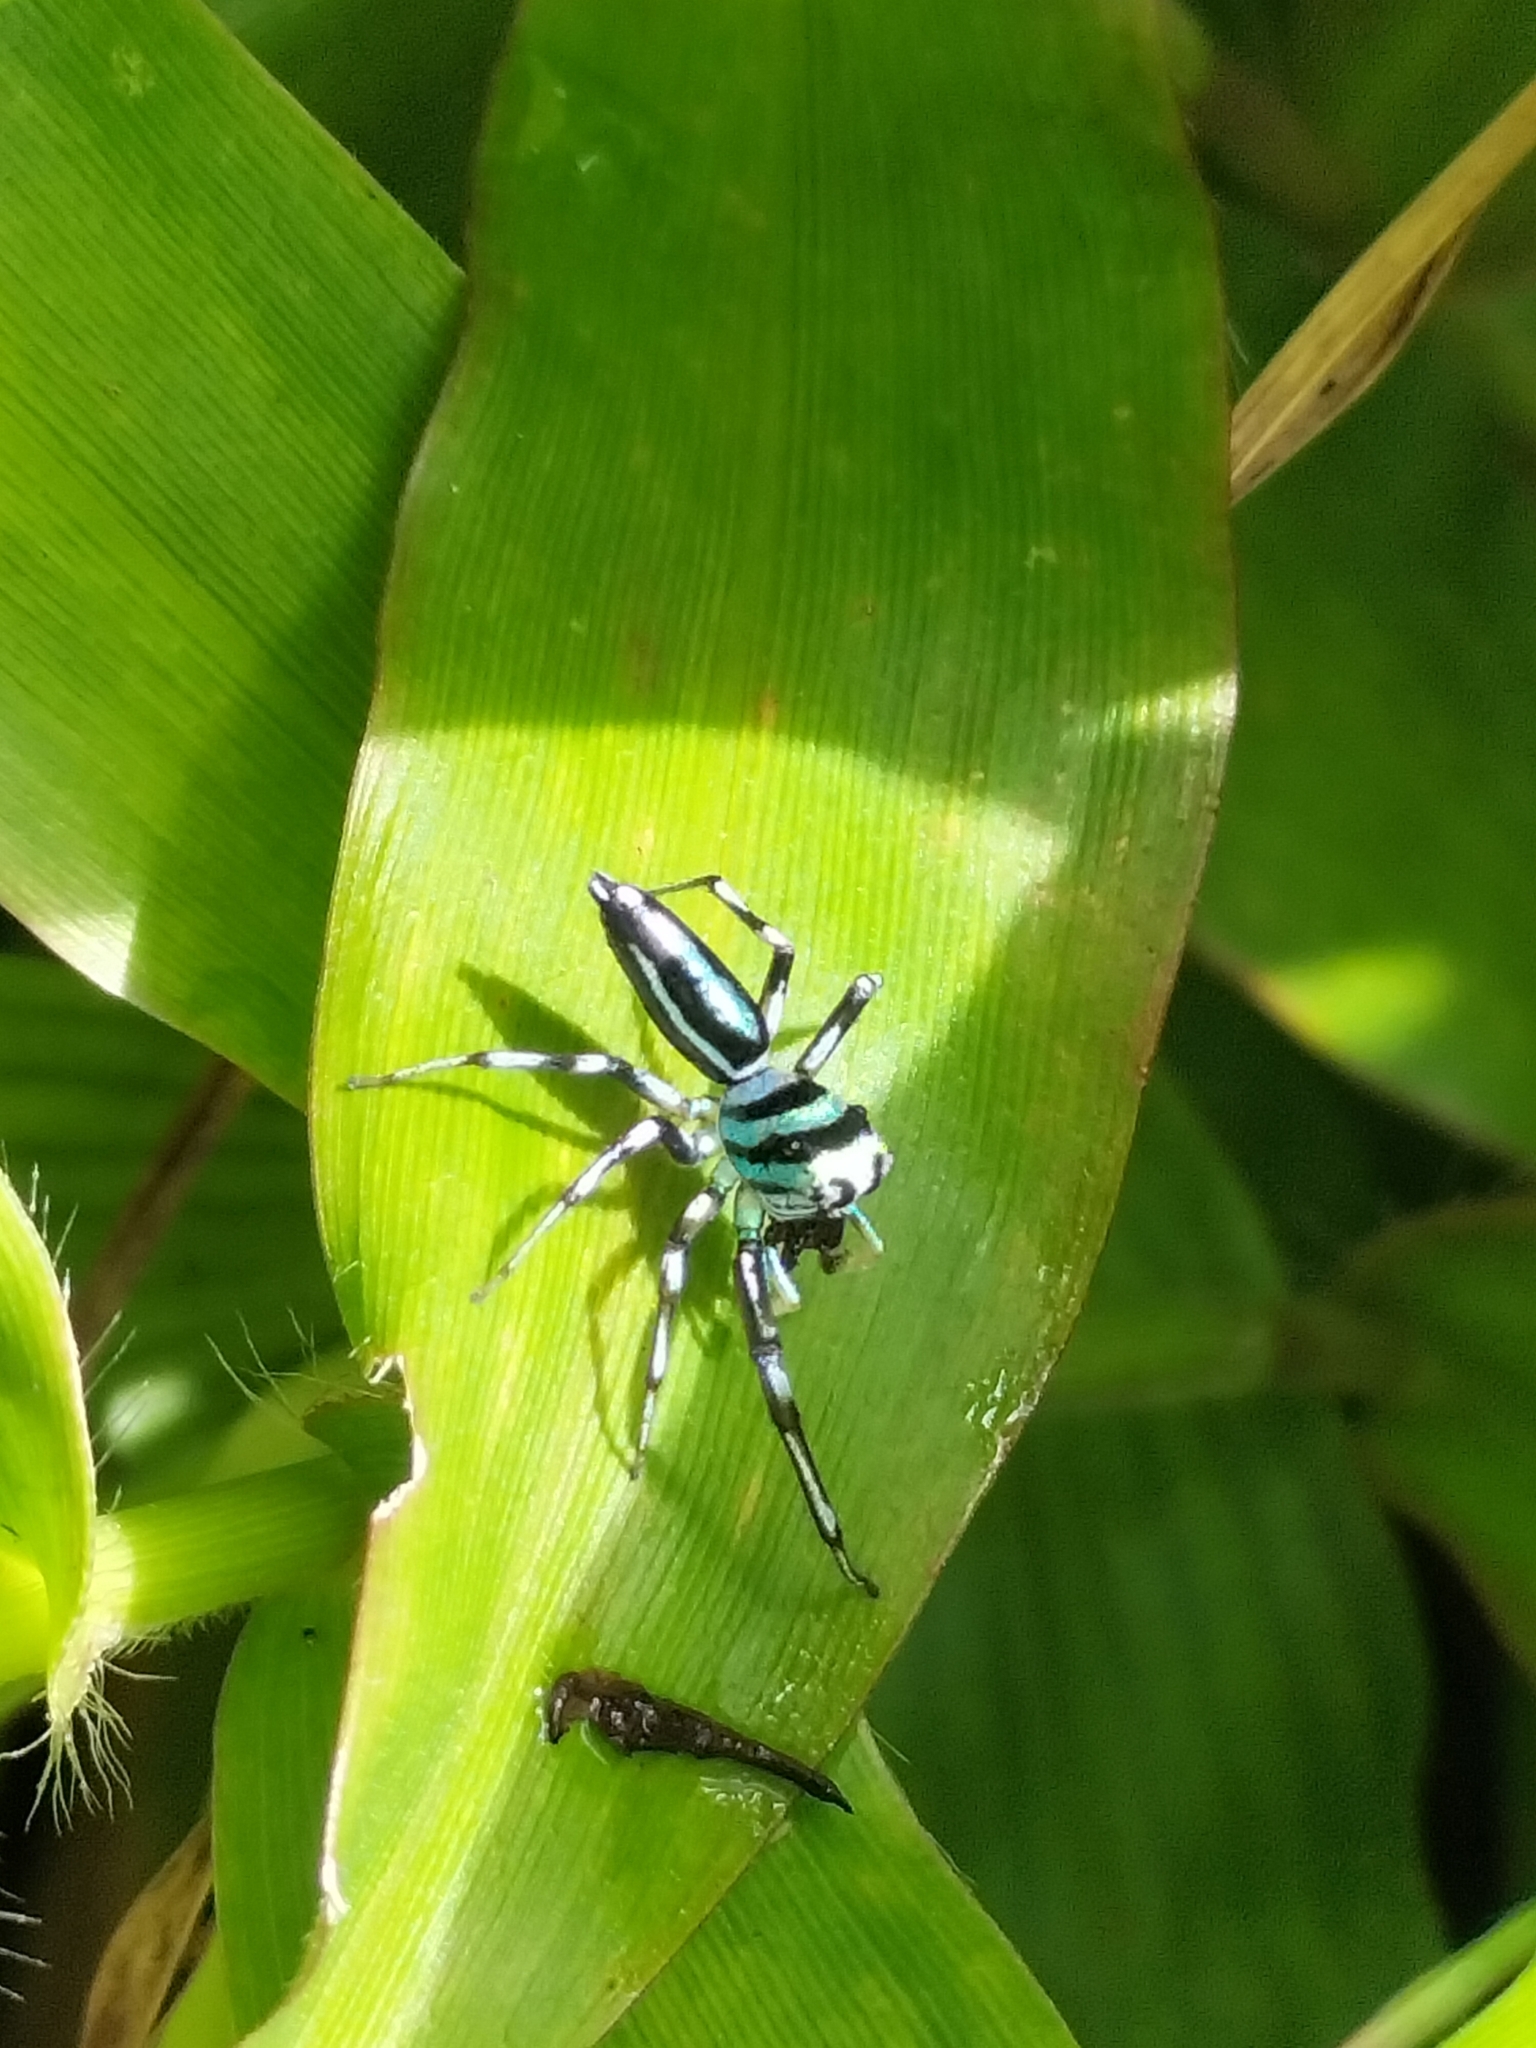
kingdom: Animalia
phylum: Arthropoda
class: Arachnida
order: Araneae
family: Salticidae
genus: Cosmophasis
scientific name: Cosmophasis micarioides
